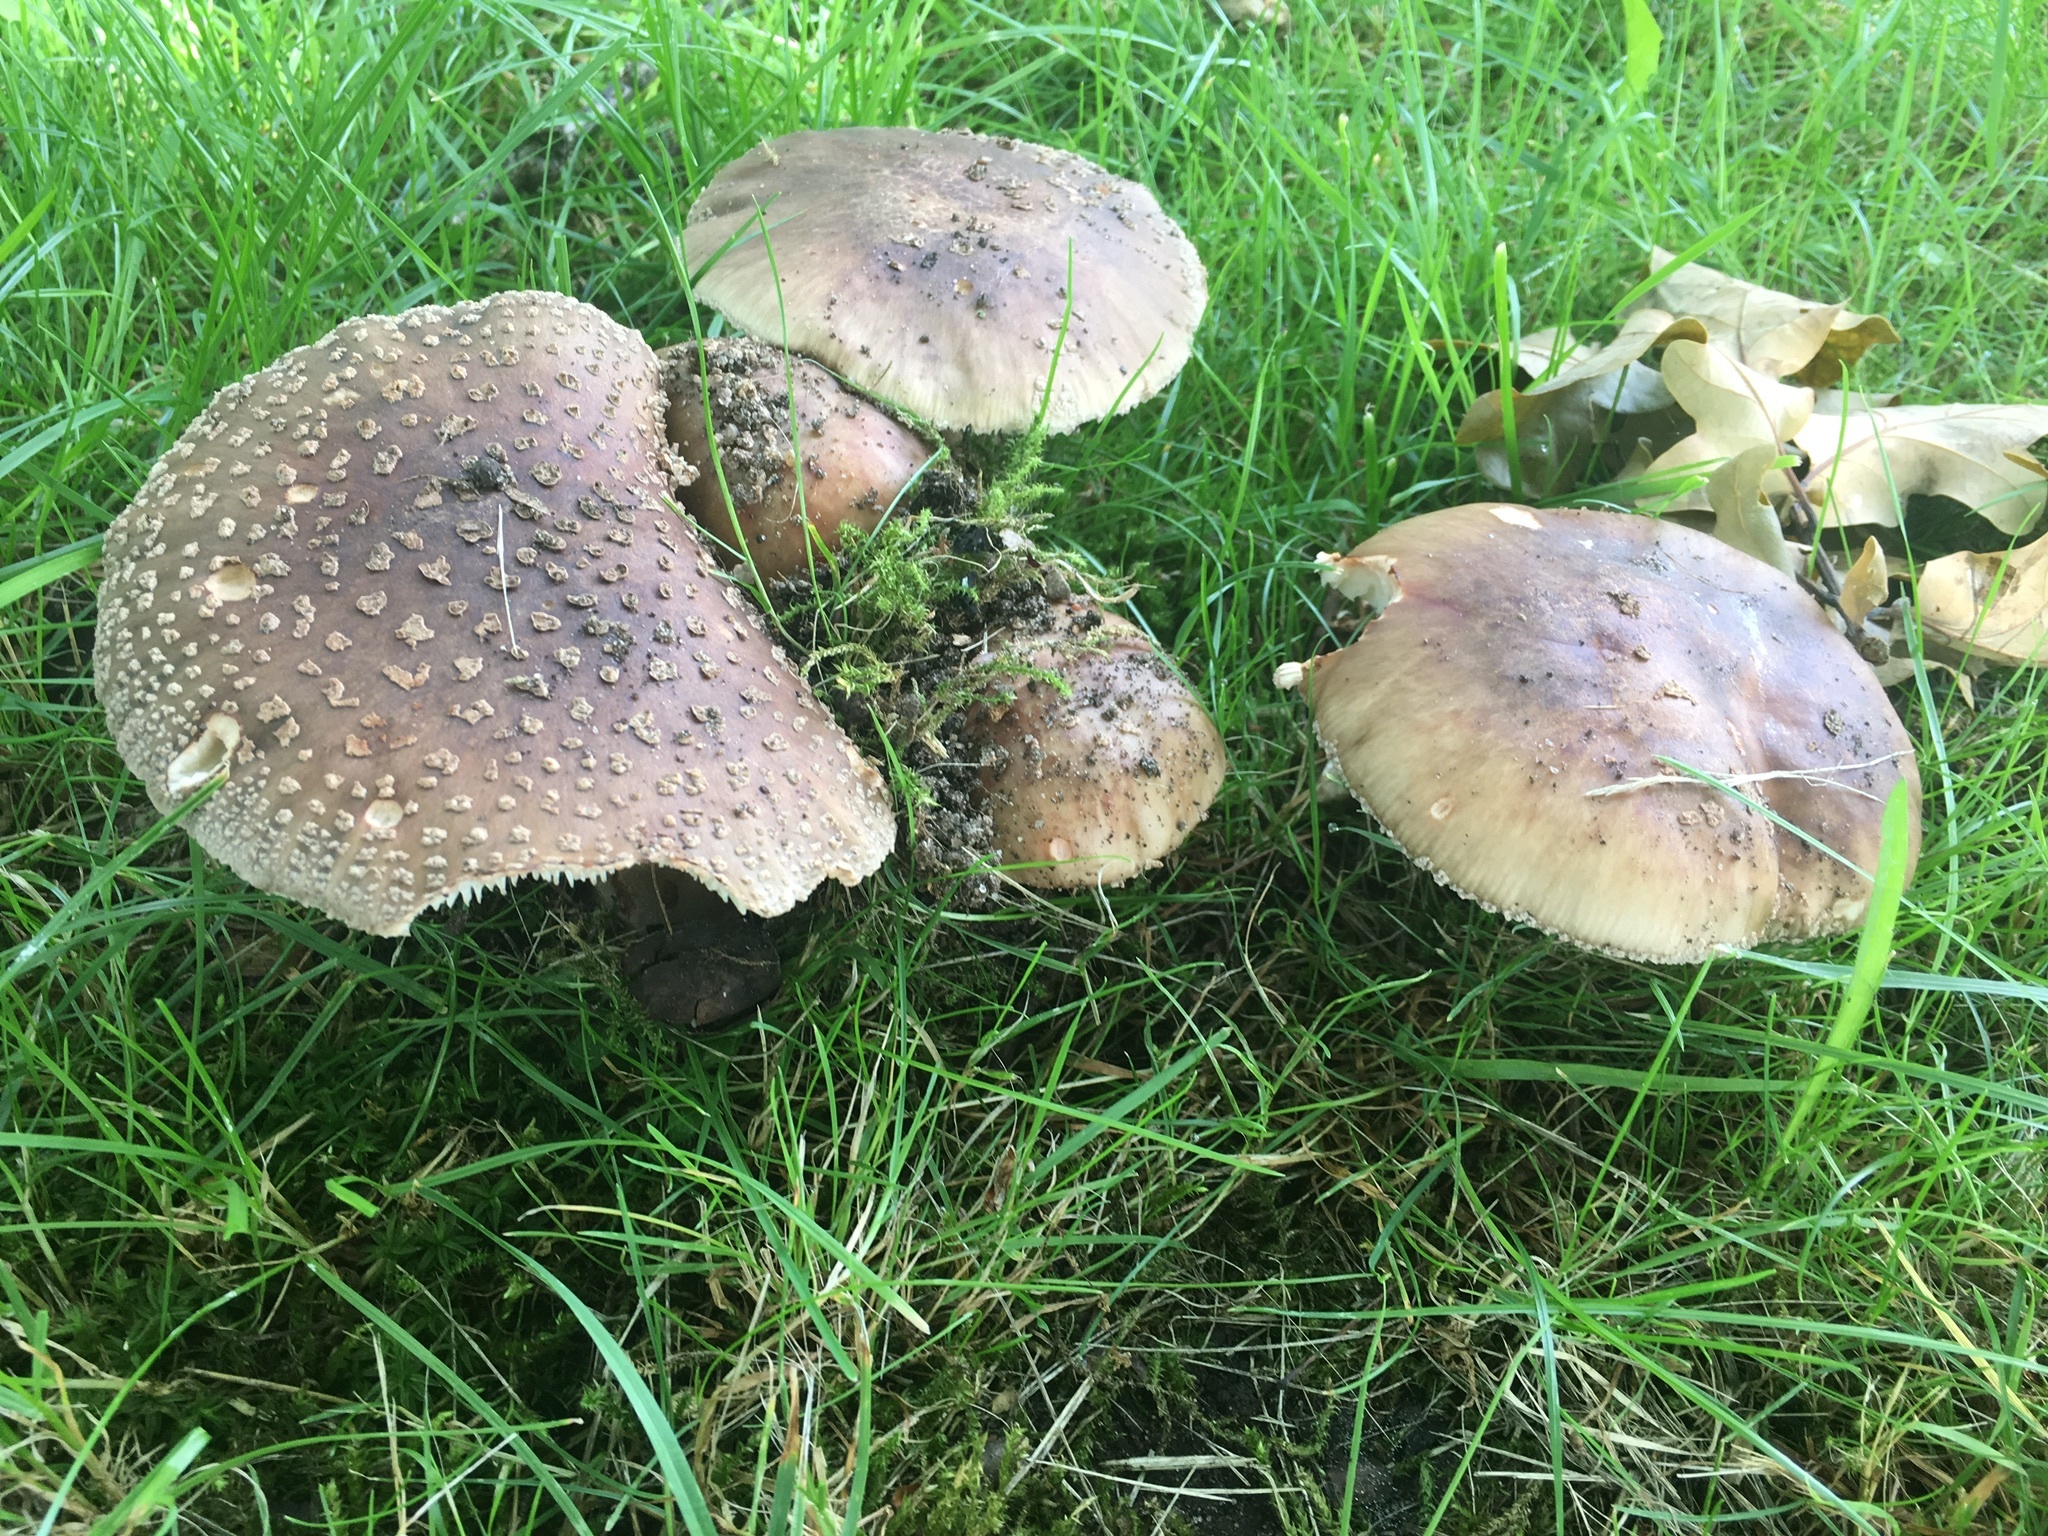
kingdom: Fungi
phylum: Basidiomycota
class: Agaricomycetes
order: Agaricales
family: Amanitaceae
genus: Amanita
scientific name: Amanita rubescens
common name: Blusher
